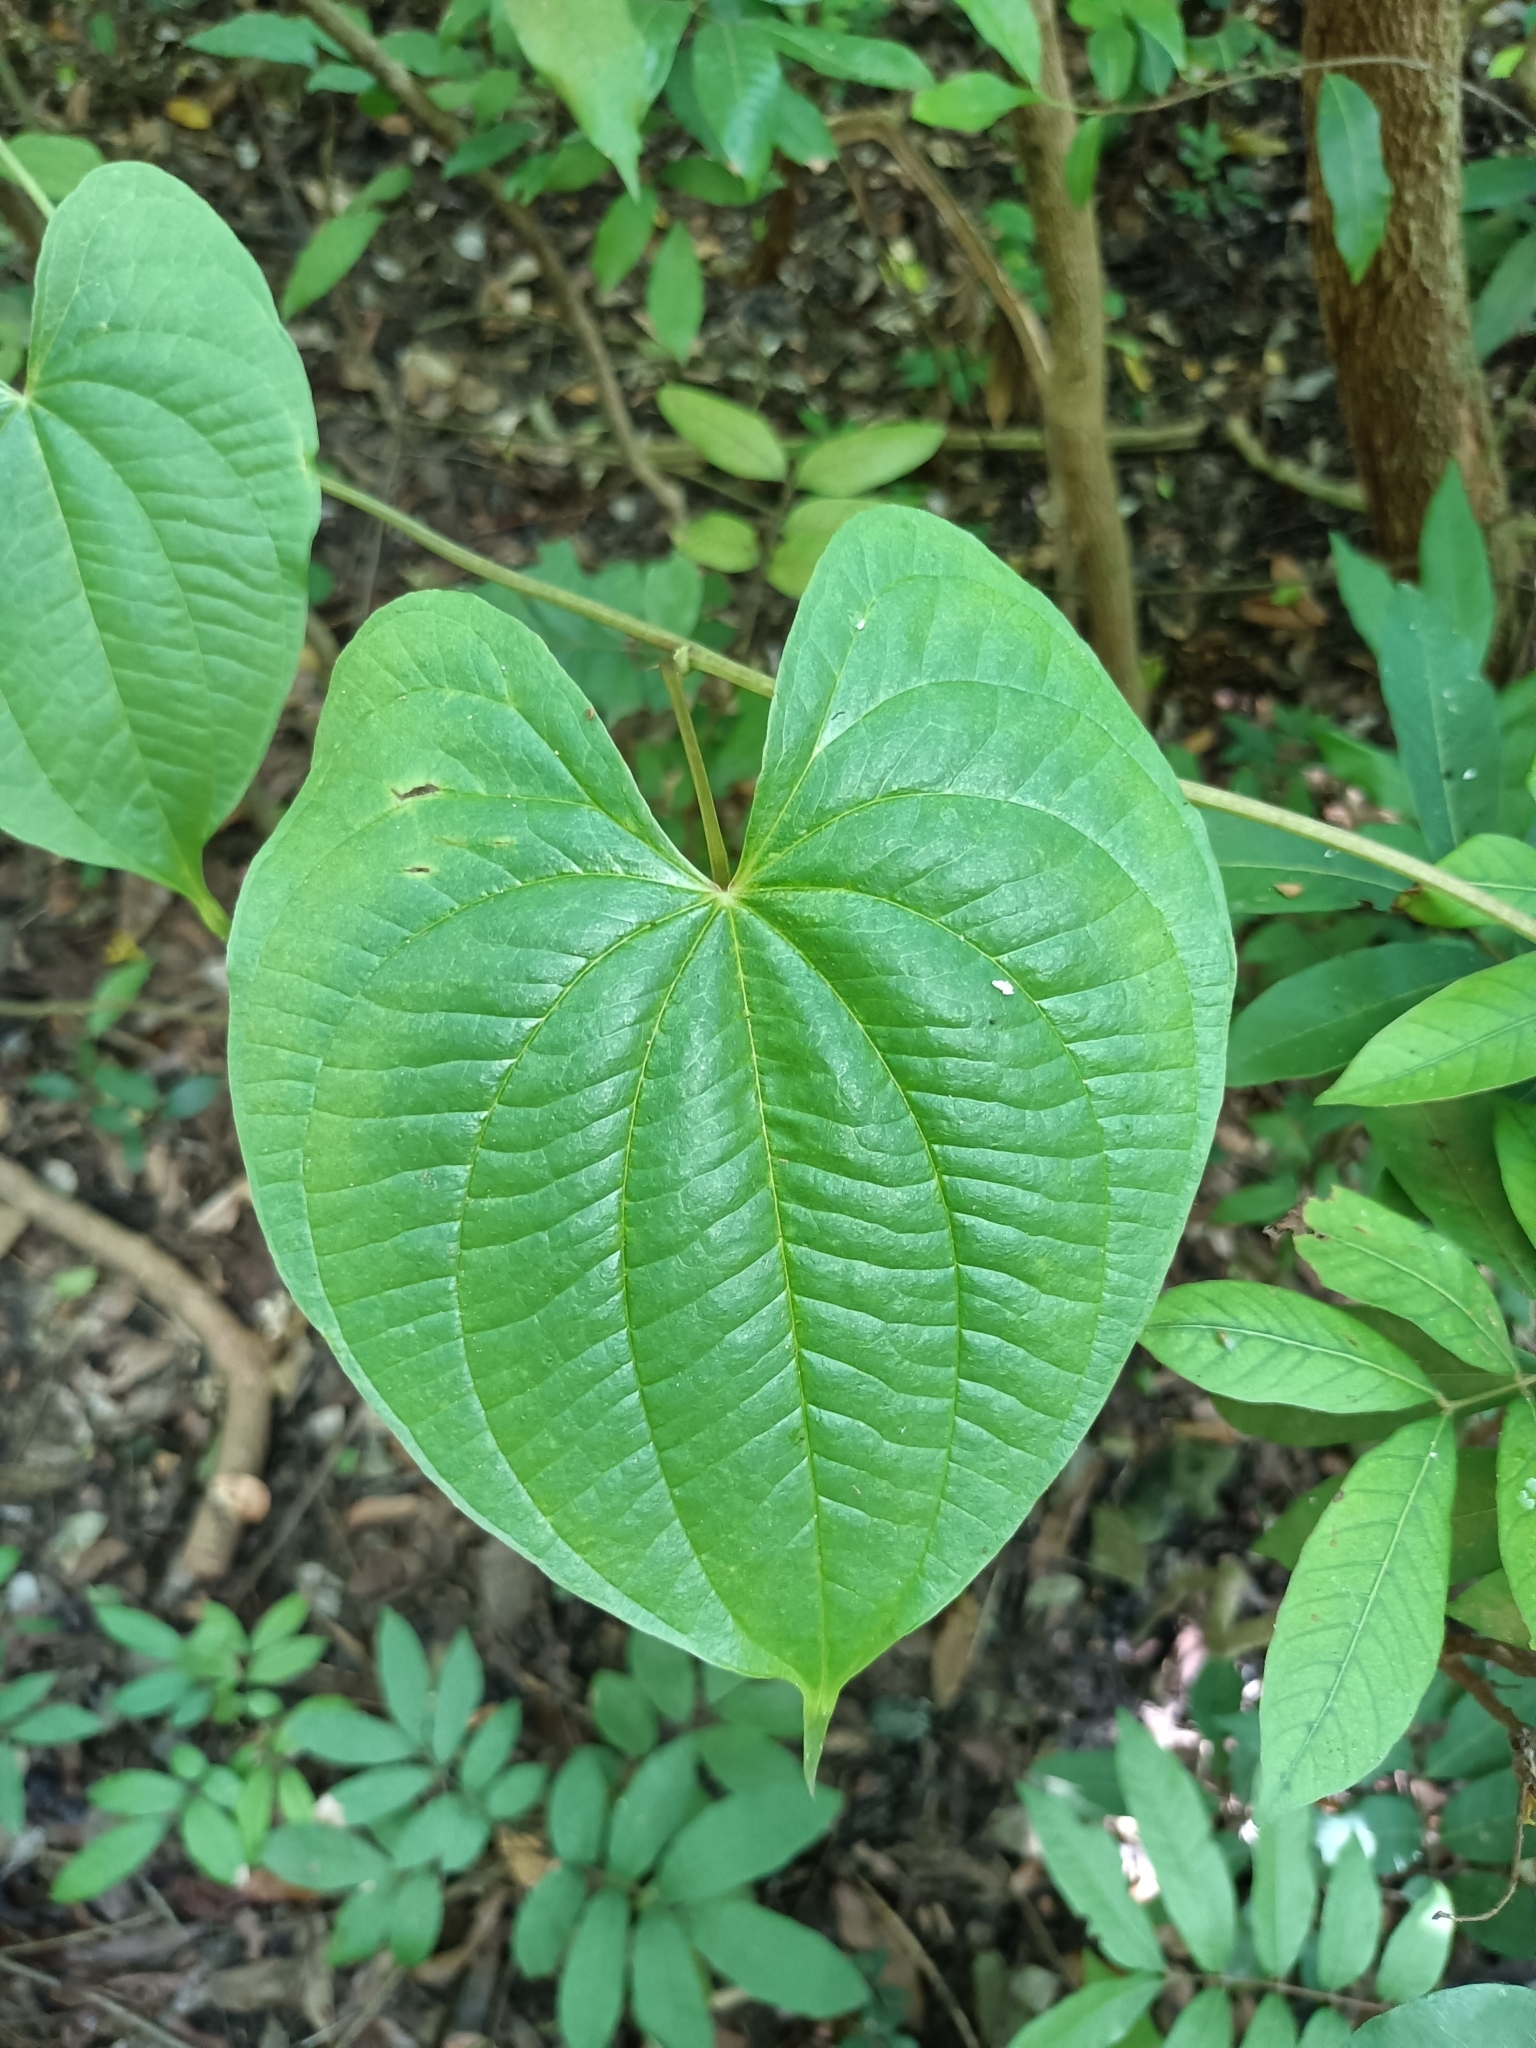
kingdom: Plantae
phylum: Tracheophyta
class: Liliopsida
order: Dioscoreales
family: Dioscoreaceae
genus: Dioscorea
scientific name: Dioscorea bulbifera
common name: Air yam
